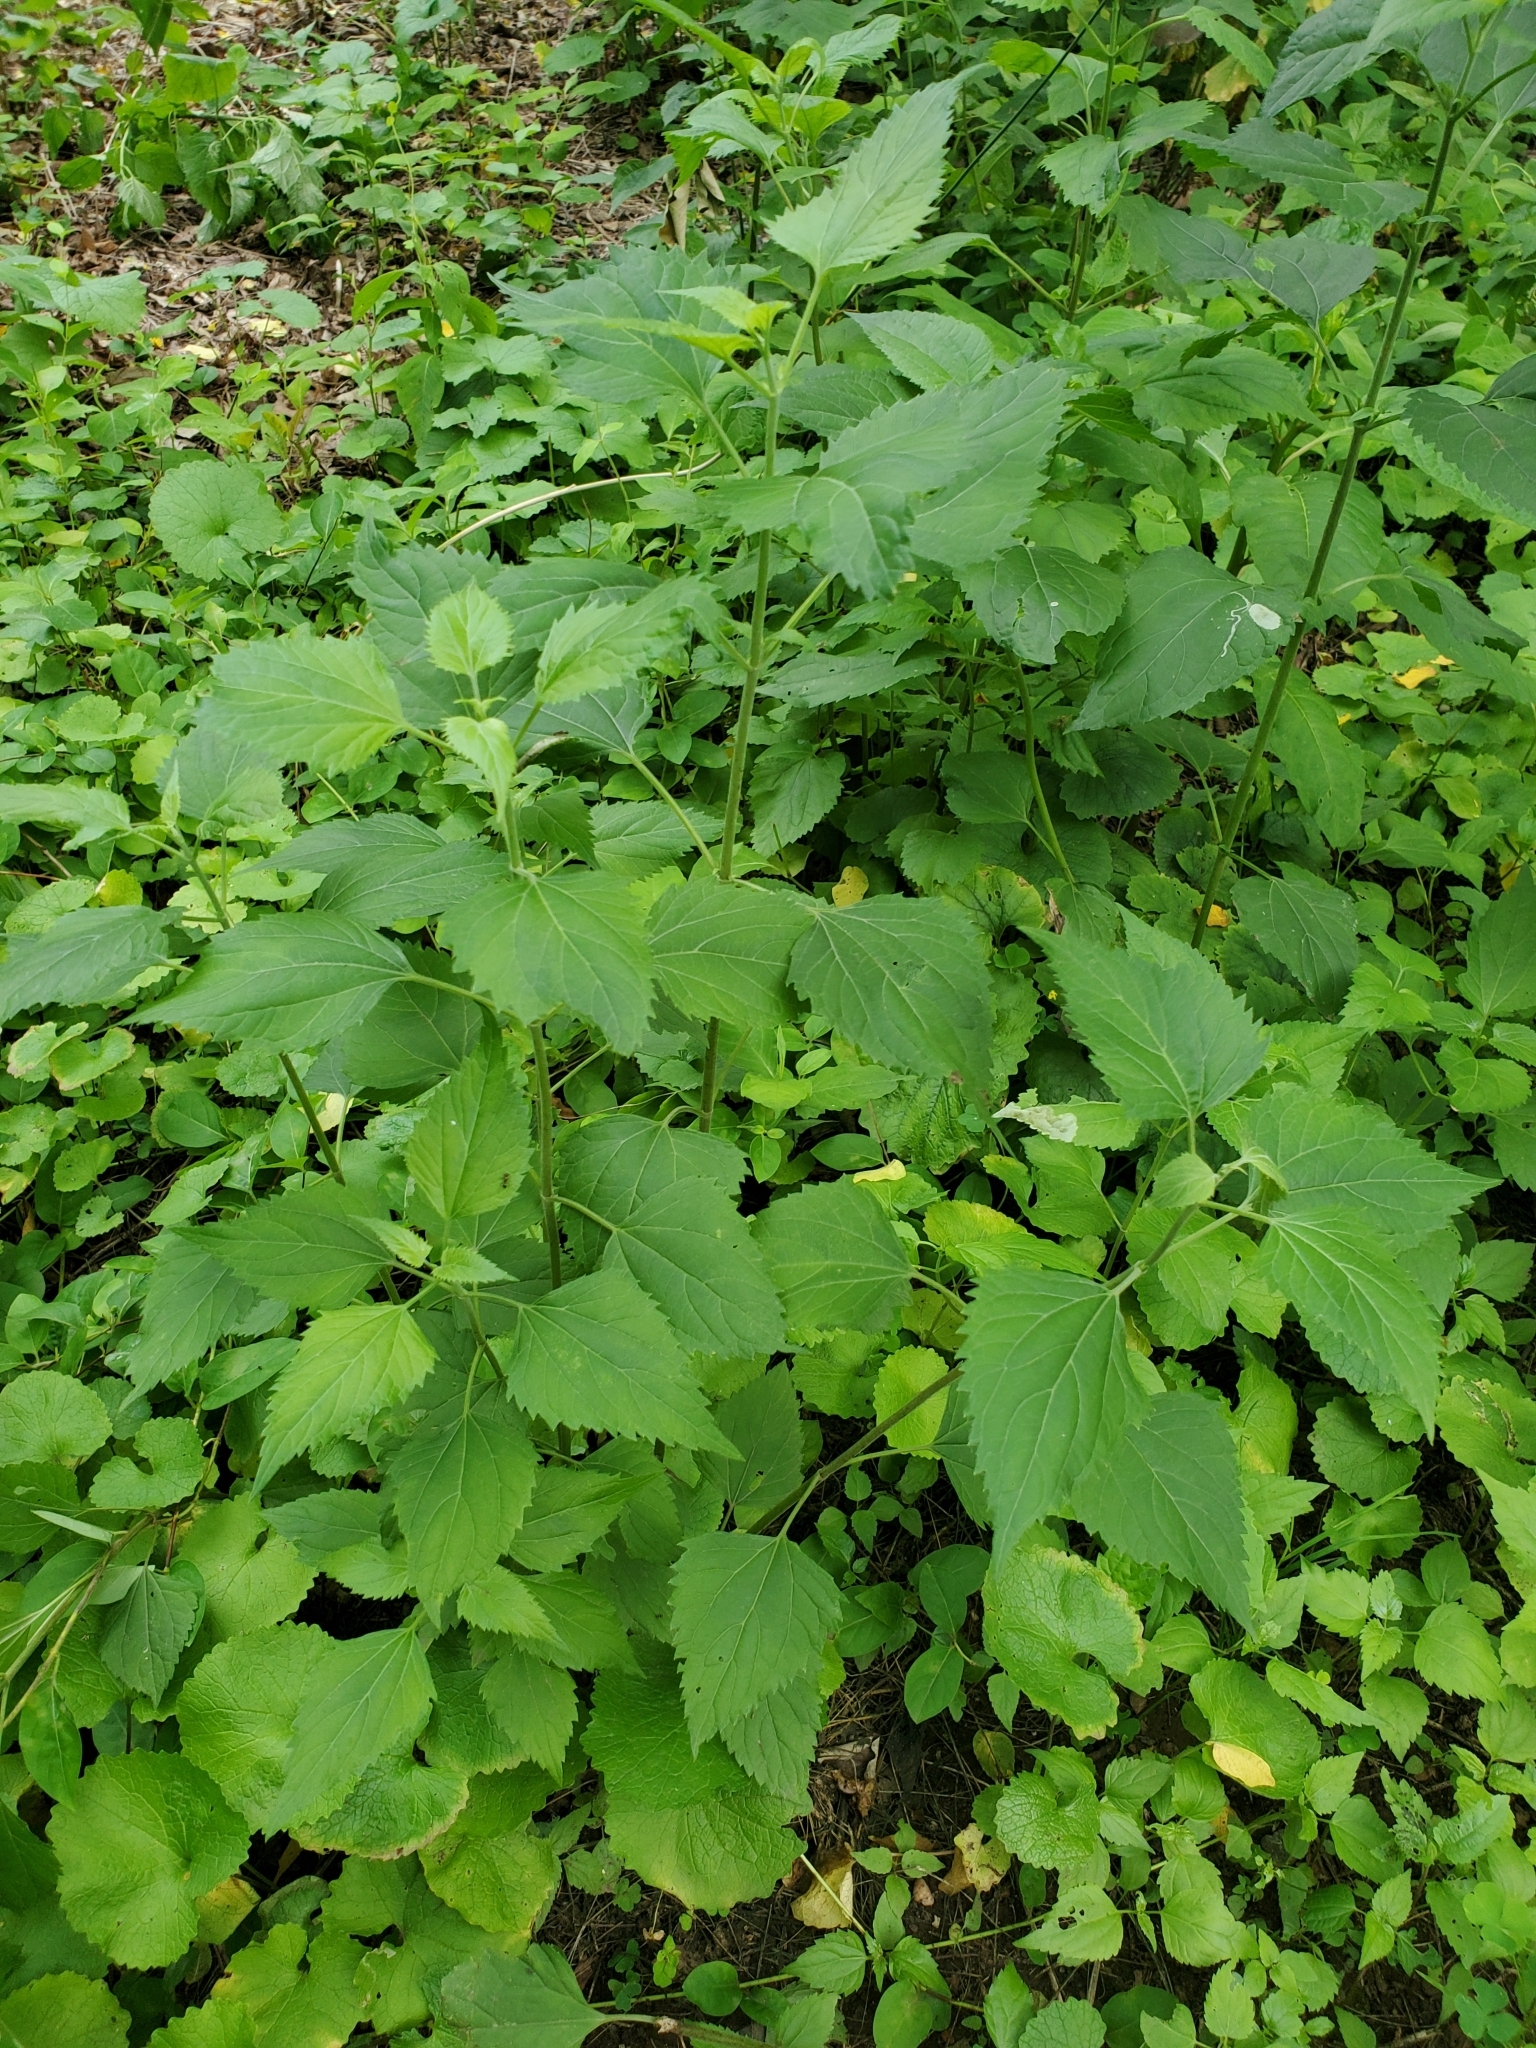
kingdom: Plantae
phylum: Tracheophyta
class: Magnoliopsida
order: Asterales
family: Asteraceae
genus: Ageratina
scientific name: Ageratina altissima
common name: White snakeroot
